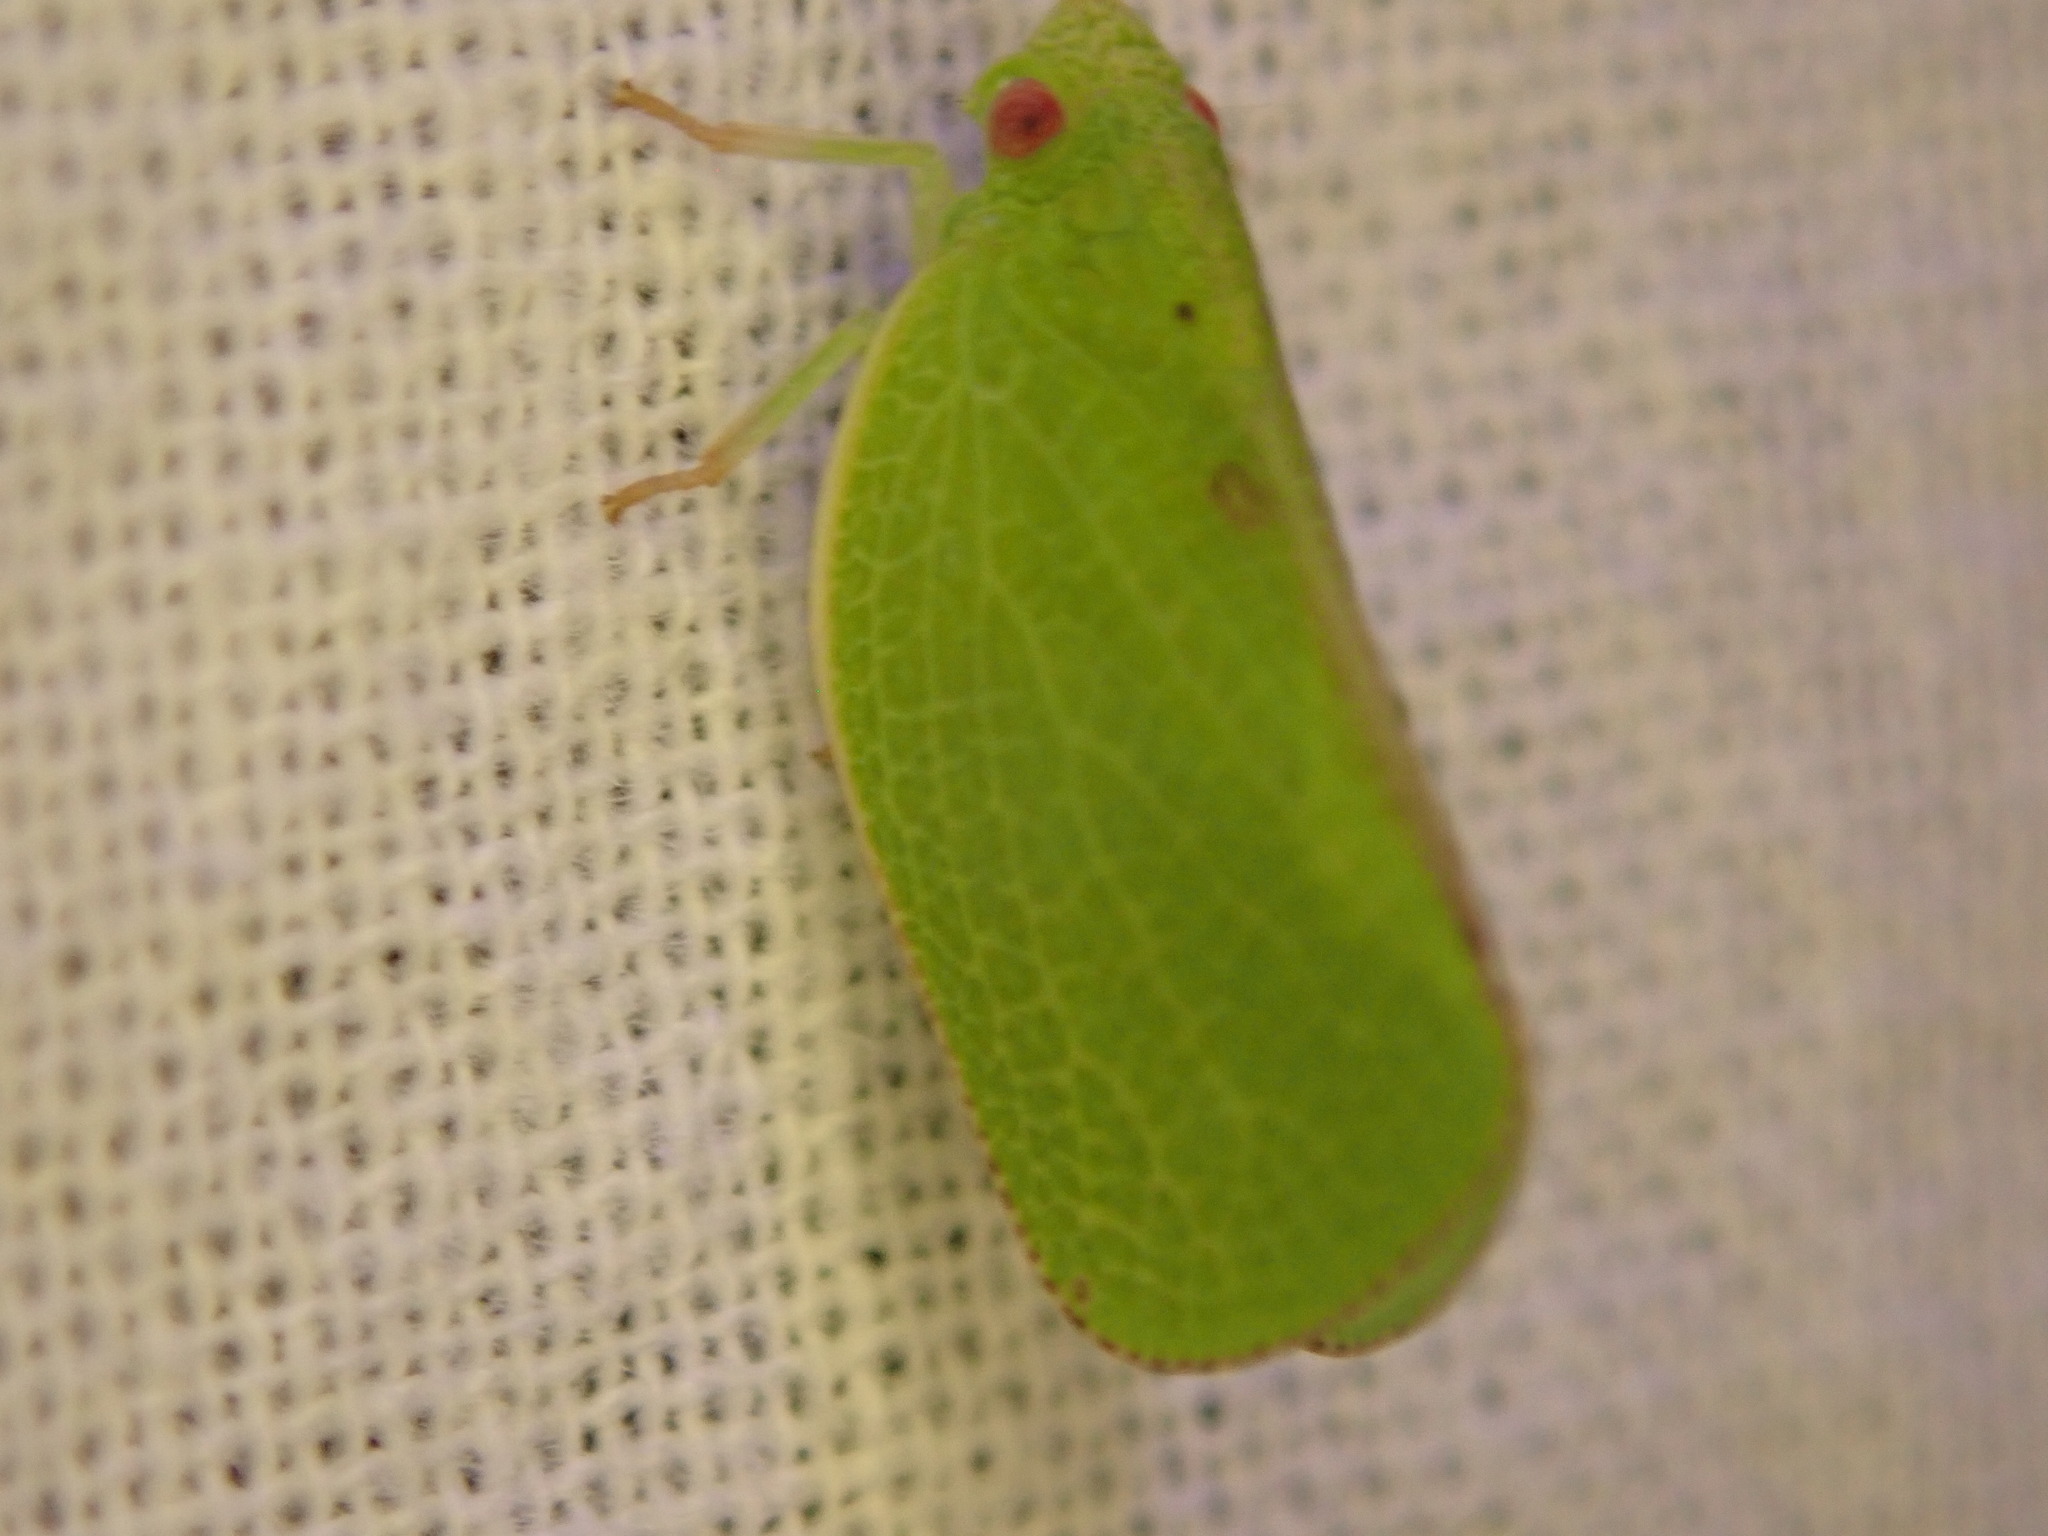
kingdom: Animalia
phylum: Arthropoda
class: Insecta
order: Hemiptera
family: Acanaloniidae
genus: Acanalonia
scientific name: Acanalonia conica
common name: Green cone-headed planthopper
